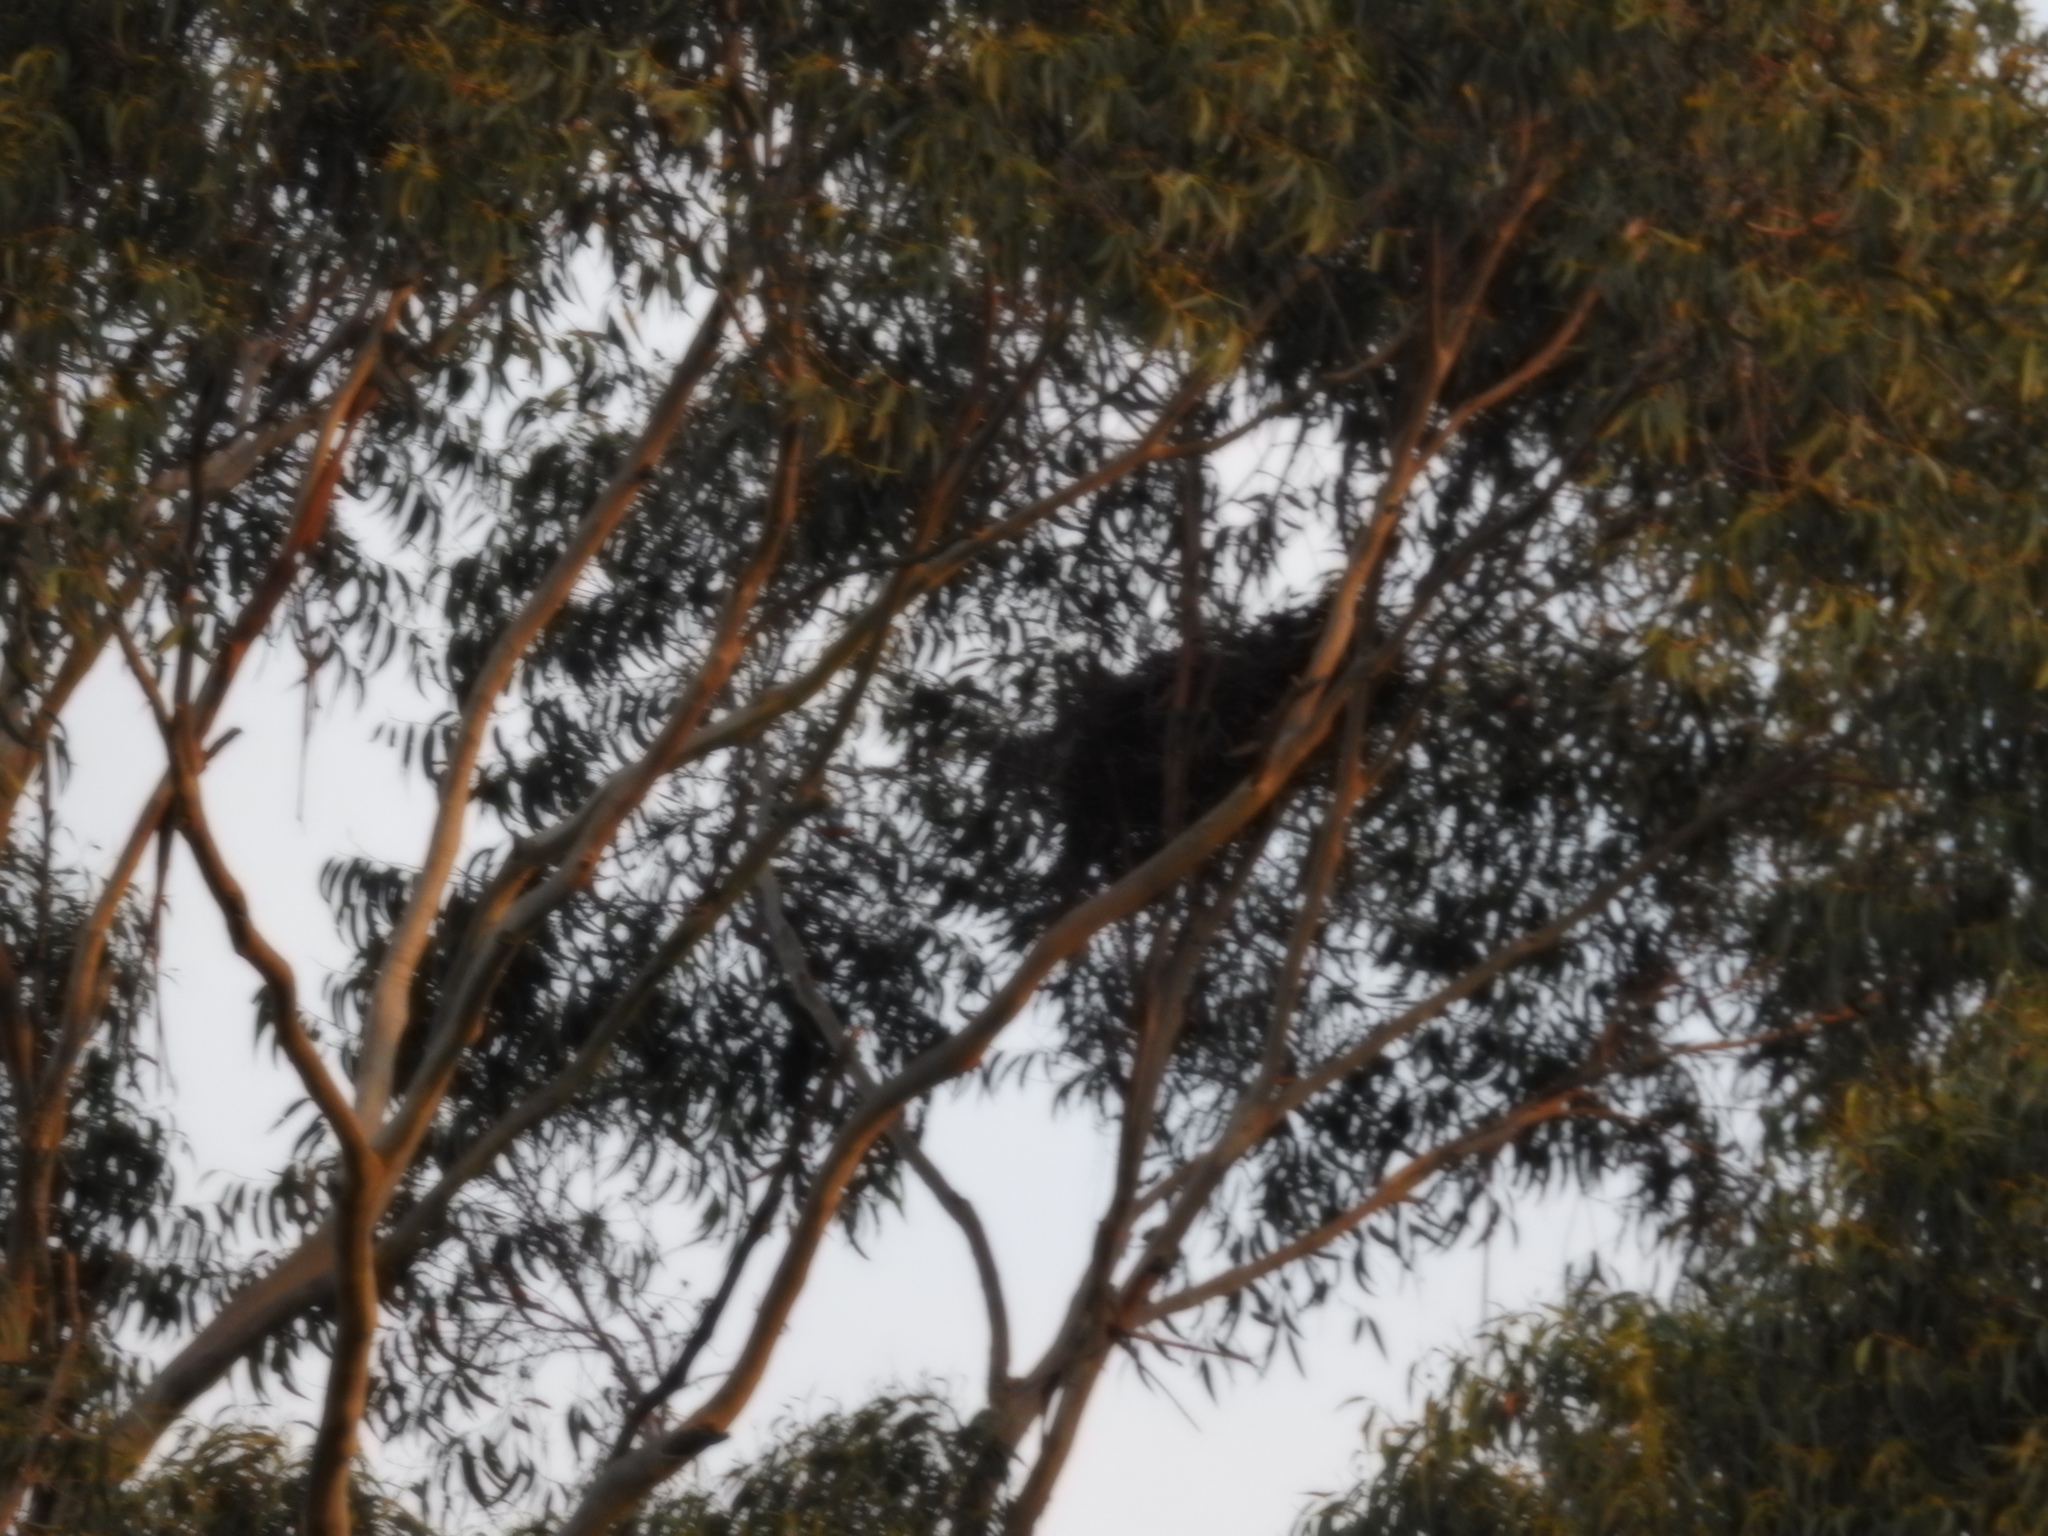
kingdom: Animalia
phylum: Chordata
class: Aves
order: Passeriformes
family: Corvidae
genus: Corvus
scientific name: Corvus frugilegus
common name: Rook
